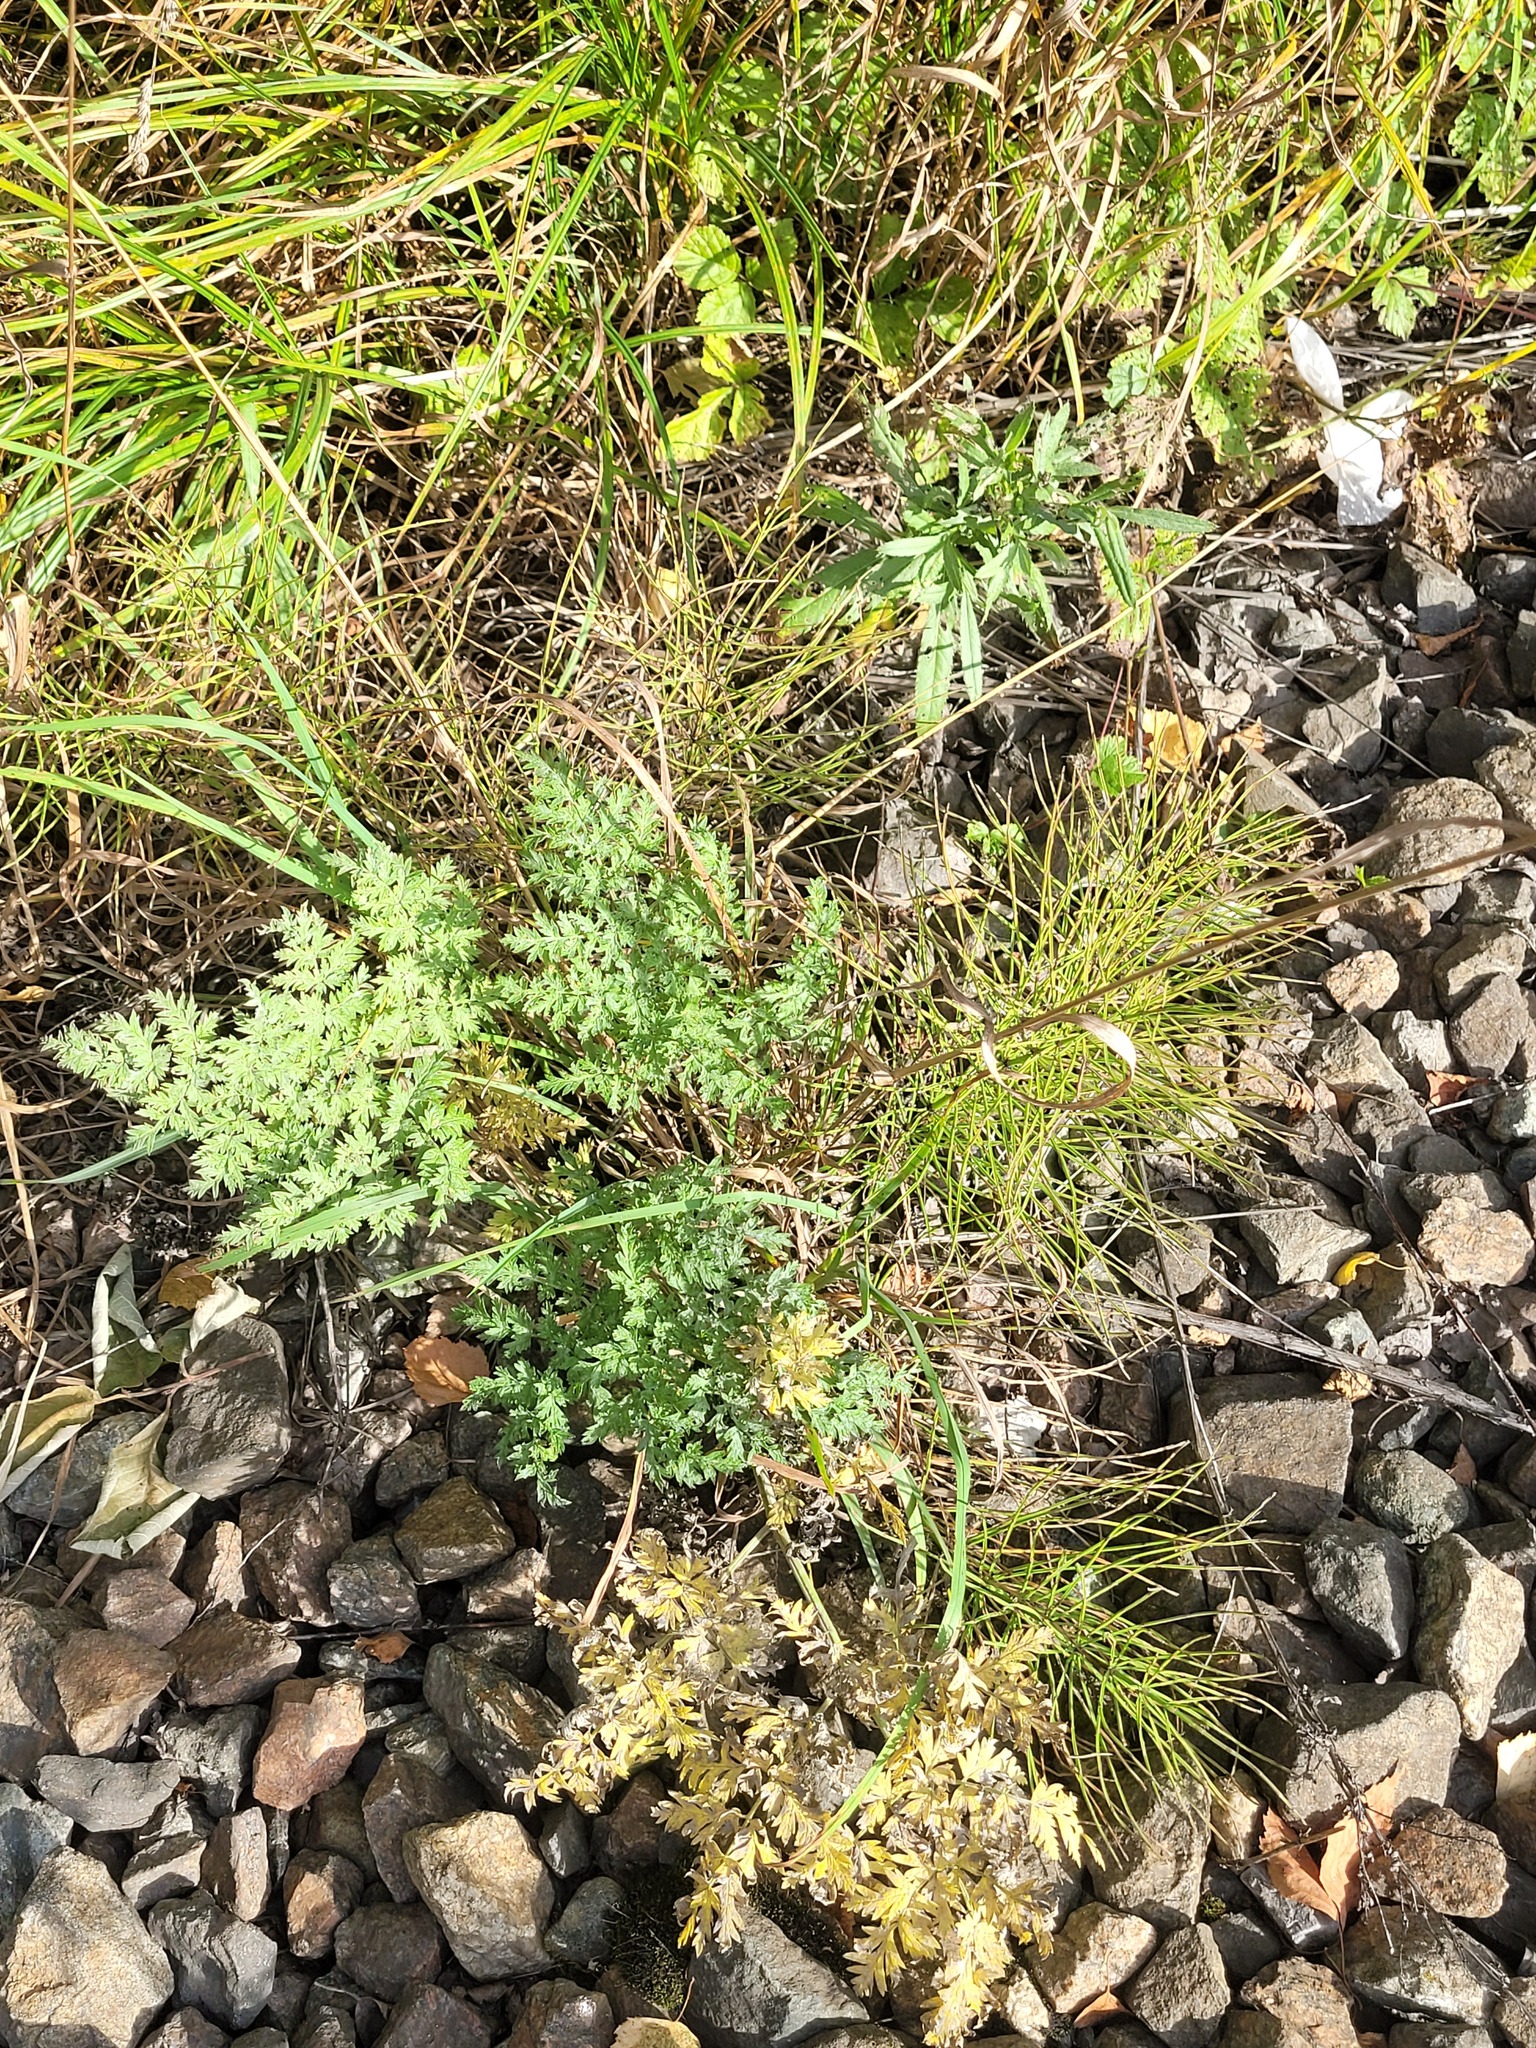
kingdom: Plantae
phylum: Tracheophyta
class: Magnoliopsida
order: Apiales
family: Apiaceae
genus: Anthriscus
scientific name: Anthriscus sylvestris
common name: Cow parsley
